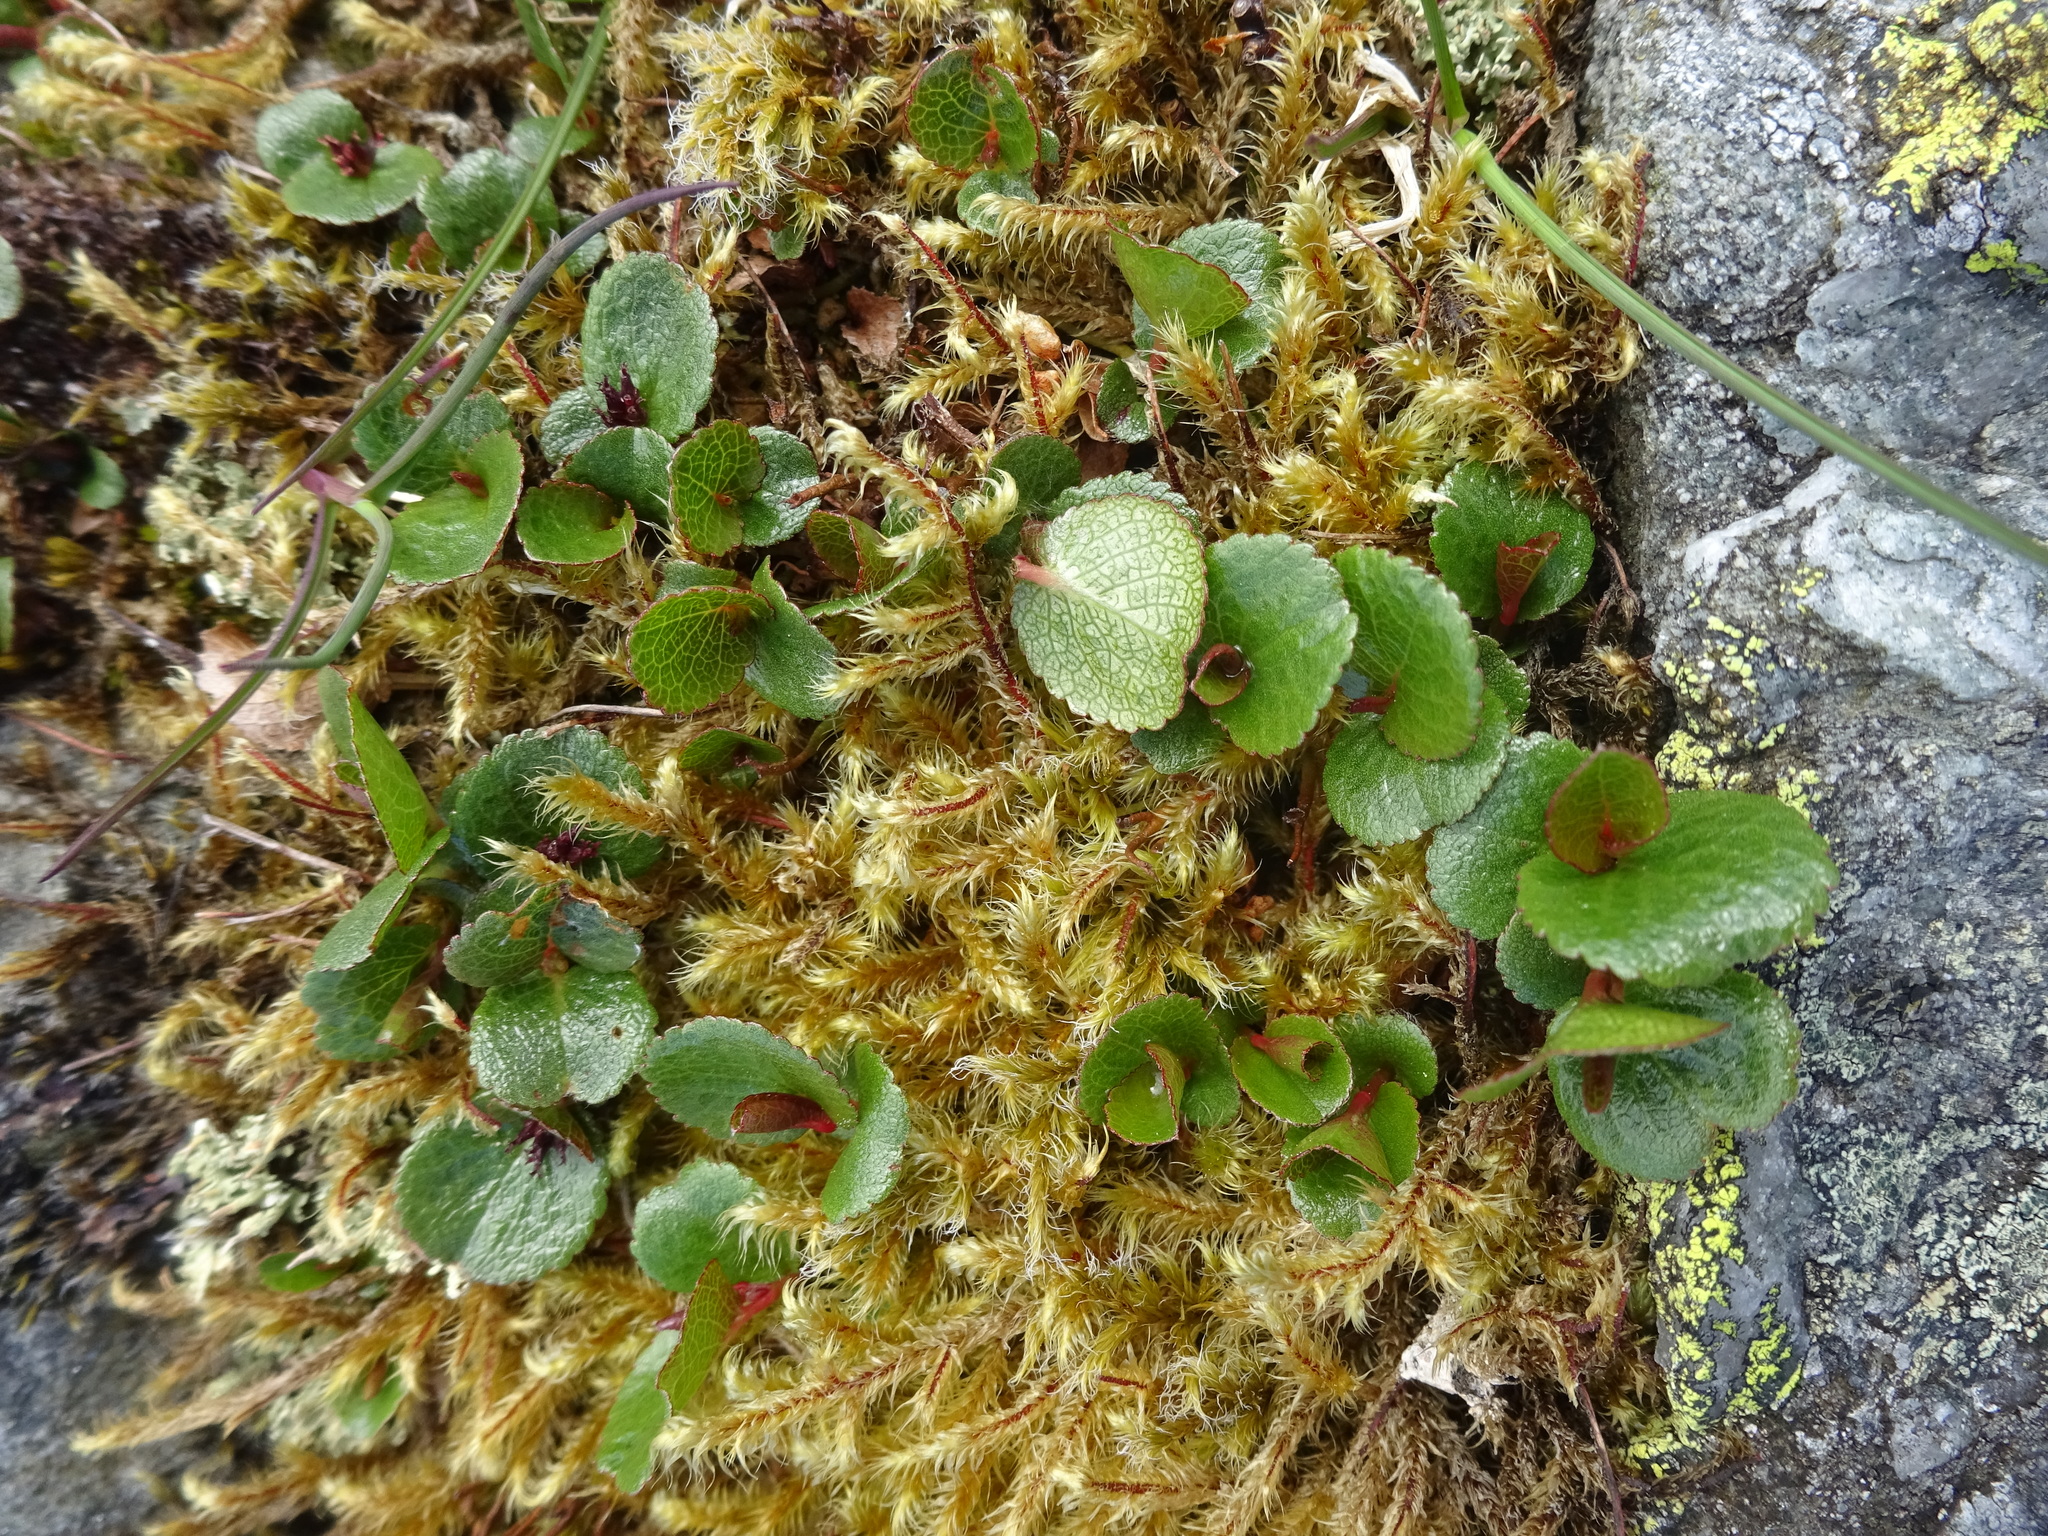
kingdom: Plantae
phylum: Tracheophyta
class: Magnoliopsida
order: Malpighiales
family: Salicaceae
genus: Salix
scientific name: Salix herbacea
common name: Dwarf willow
